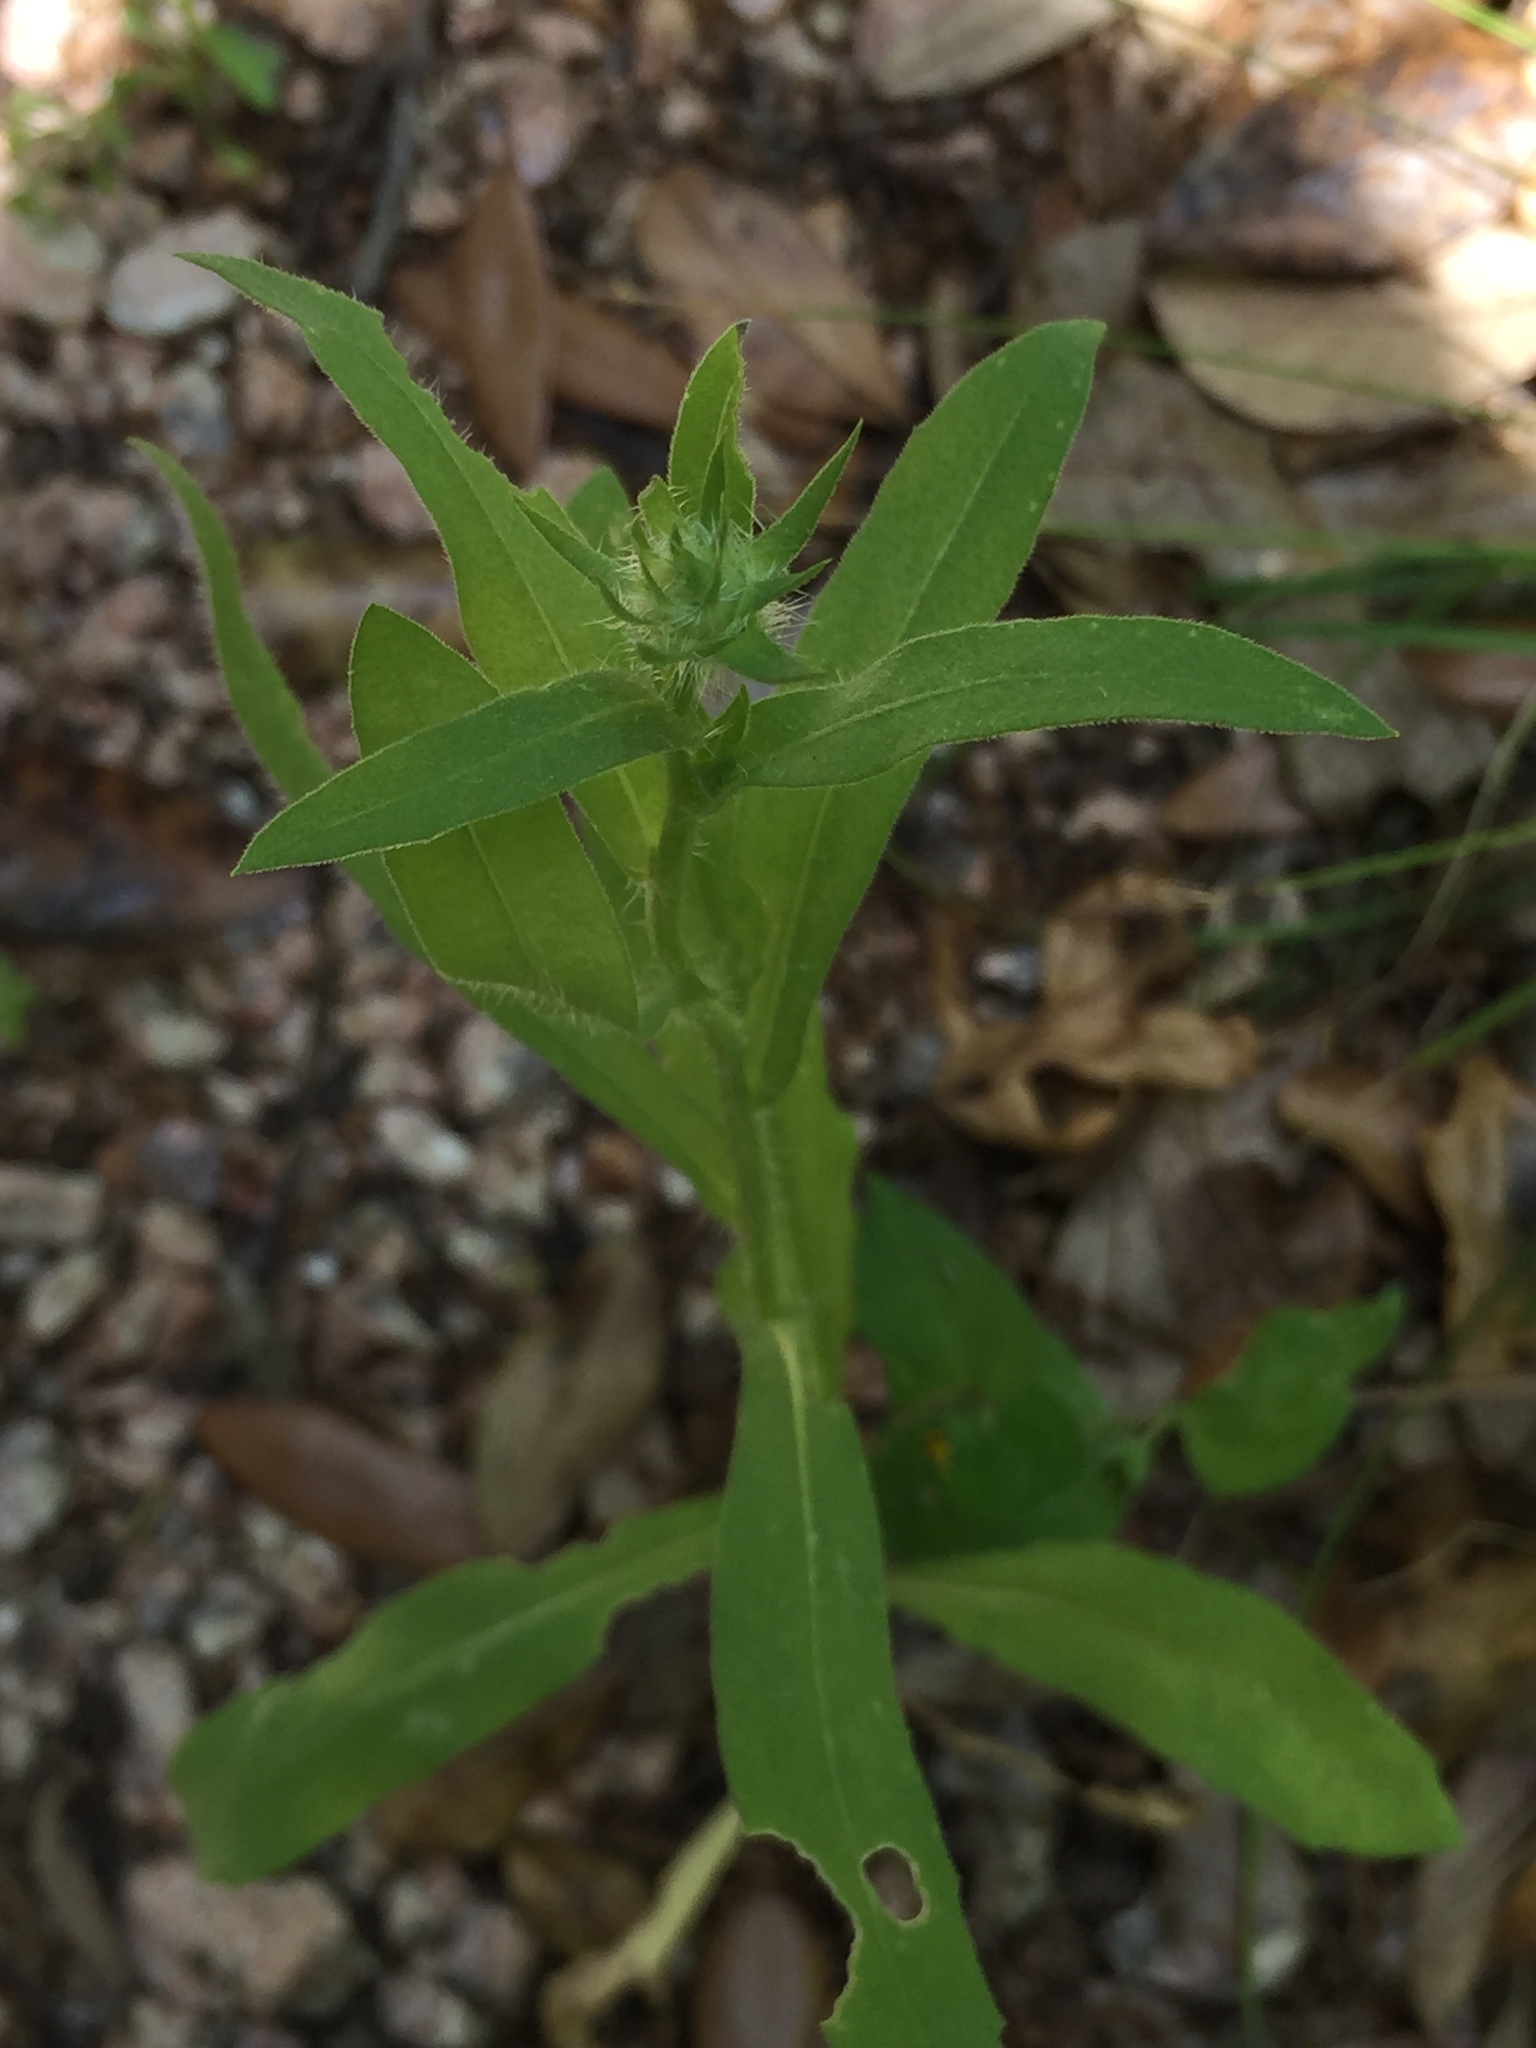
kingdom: Plantae
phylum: Tracheophyta
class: Magnoliopsida
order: Asterales
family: Asteraceae
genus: Gaillardia
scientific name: Gaillardia pulchella
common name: Firewheel
